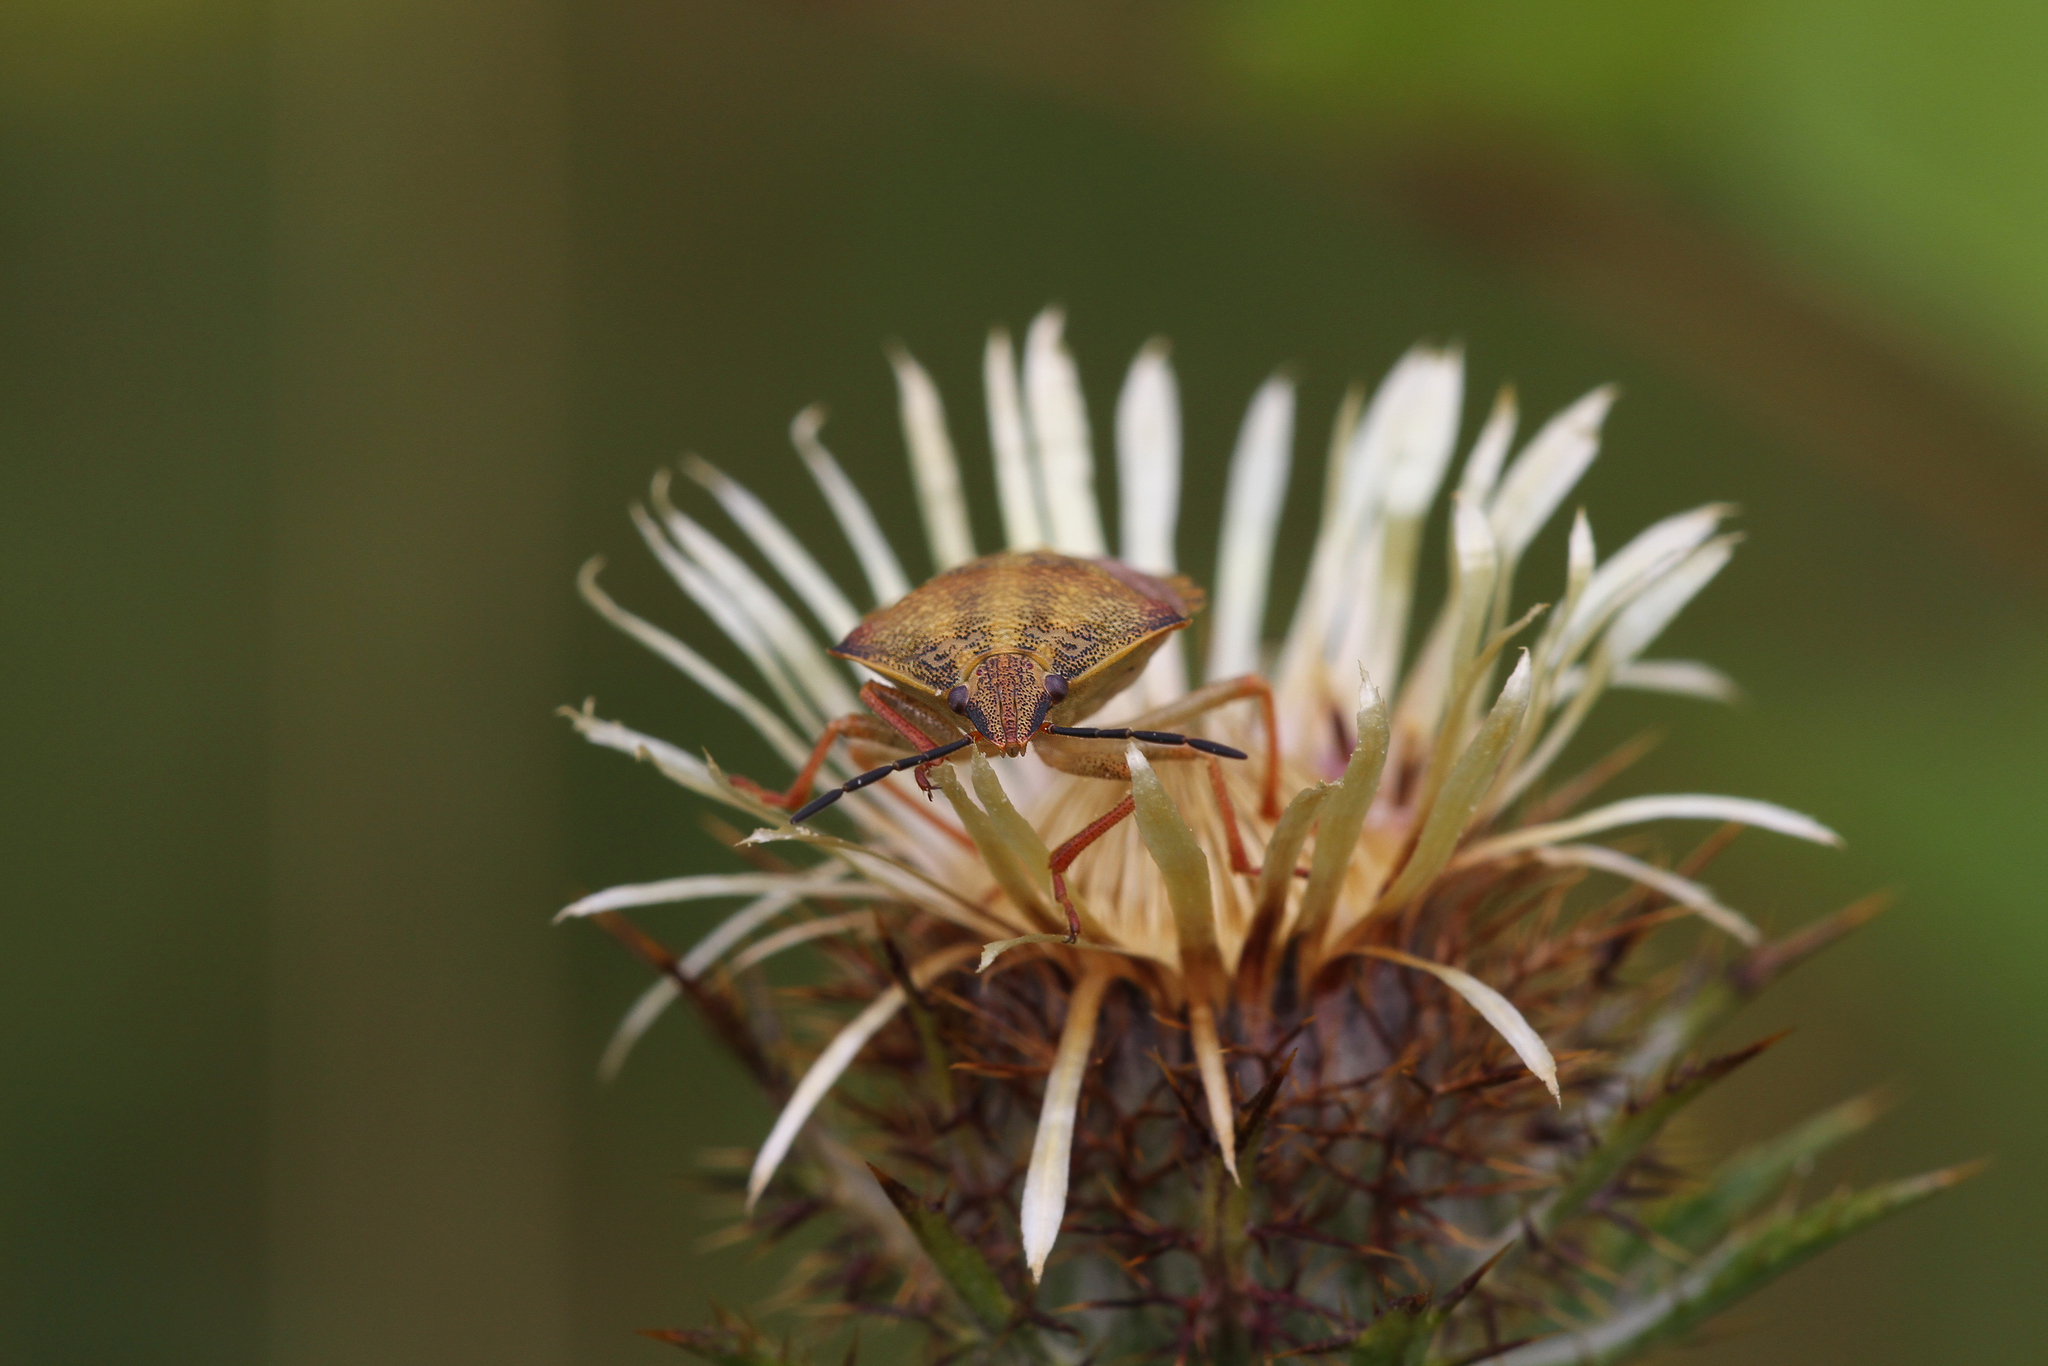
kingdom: Animalia
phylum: Arthropoda
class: Insecta
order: Hemiptera
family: Pentatomidae
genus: Carpocoris
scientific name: Carpocoris purpureipennis
